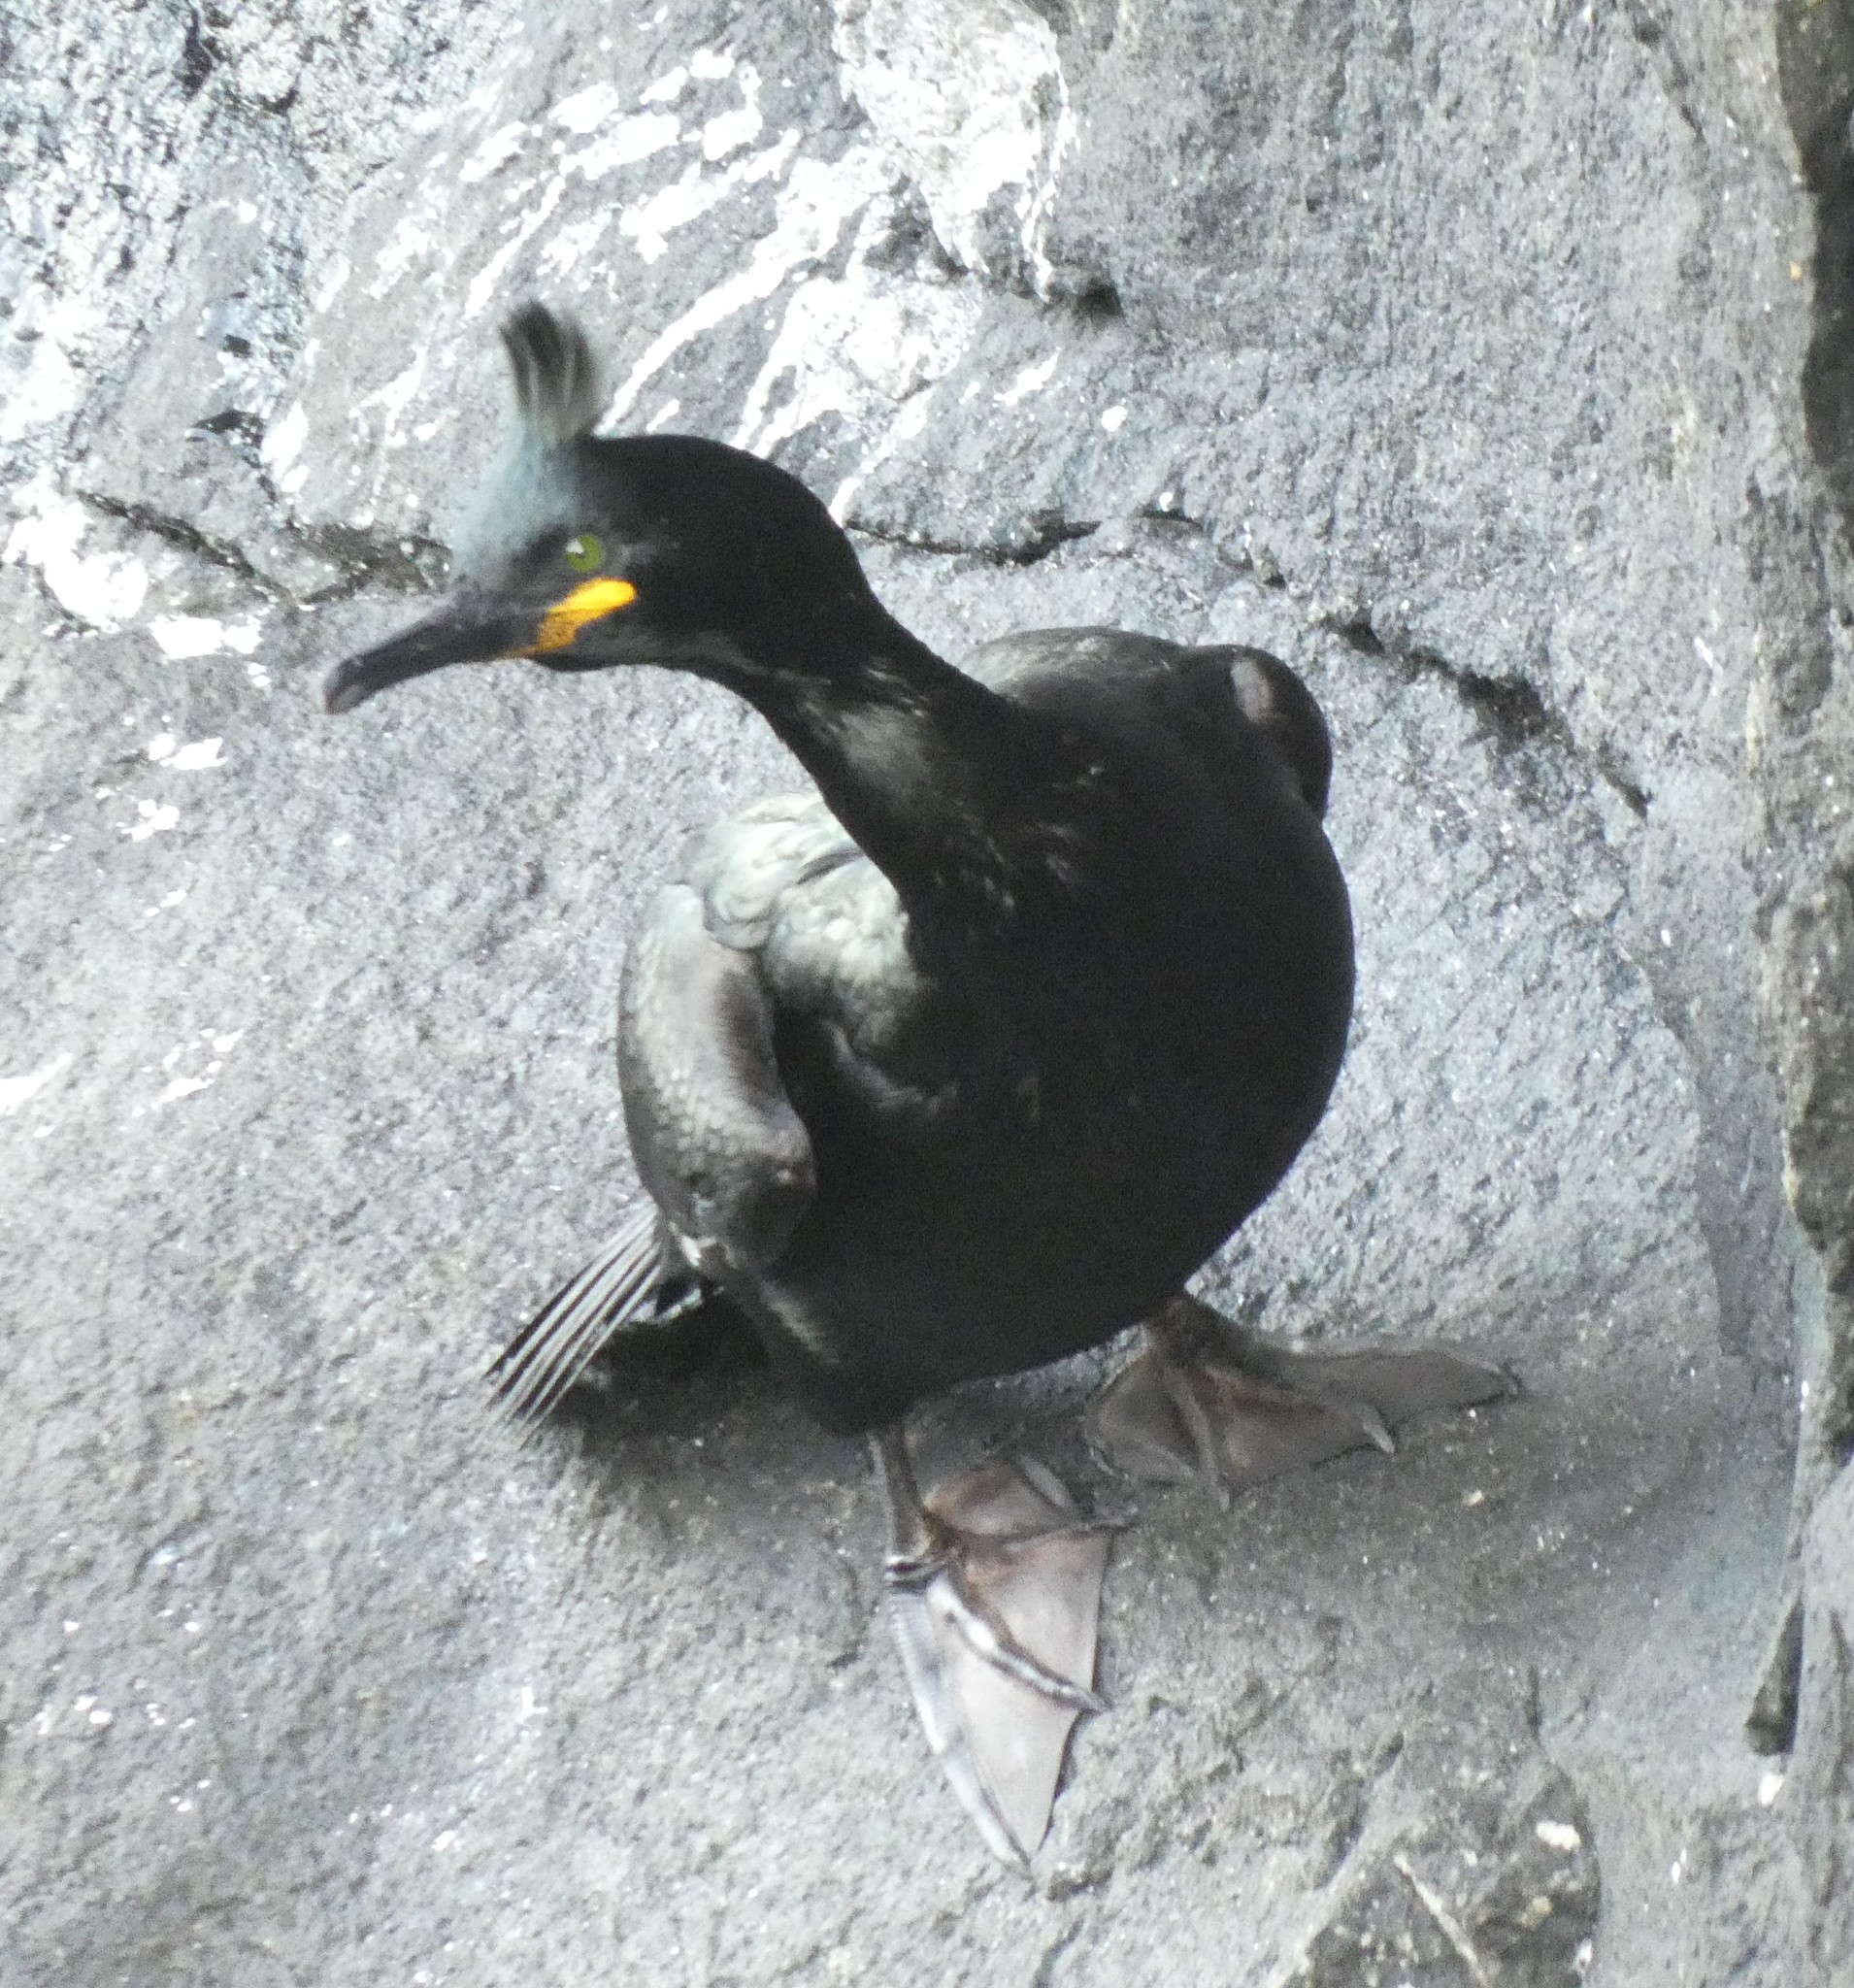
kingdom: Animalia
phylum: Chordata
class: Aves
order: Suliformes
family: Phalacrocoracidae
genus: Phalacrocorax
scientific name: Phalacrocorax aristotelis
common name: European shag
